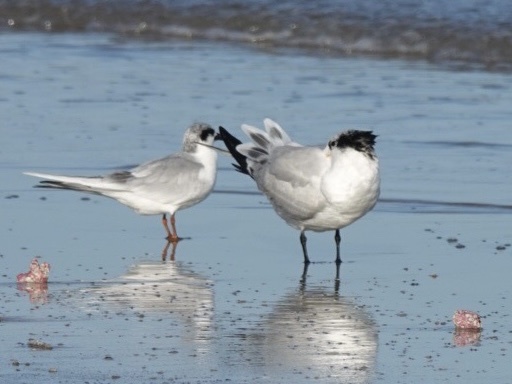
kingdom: Animalia
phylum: Chordata
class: Aves
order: Charadriiformes
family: Laridae
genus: Sterna
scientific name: Sterna forsteri
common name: Forster's tern
